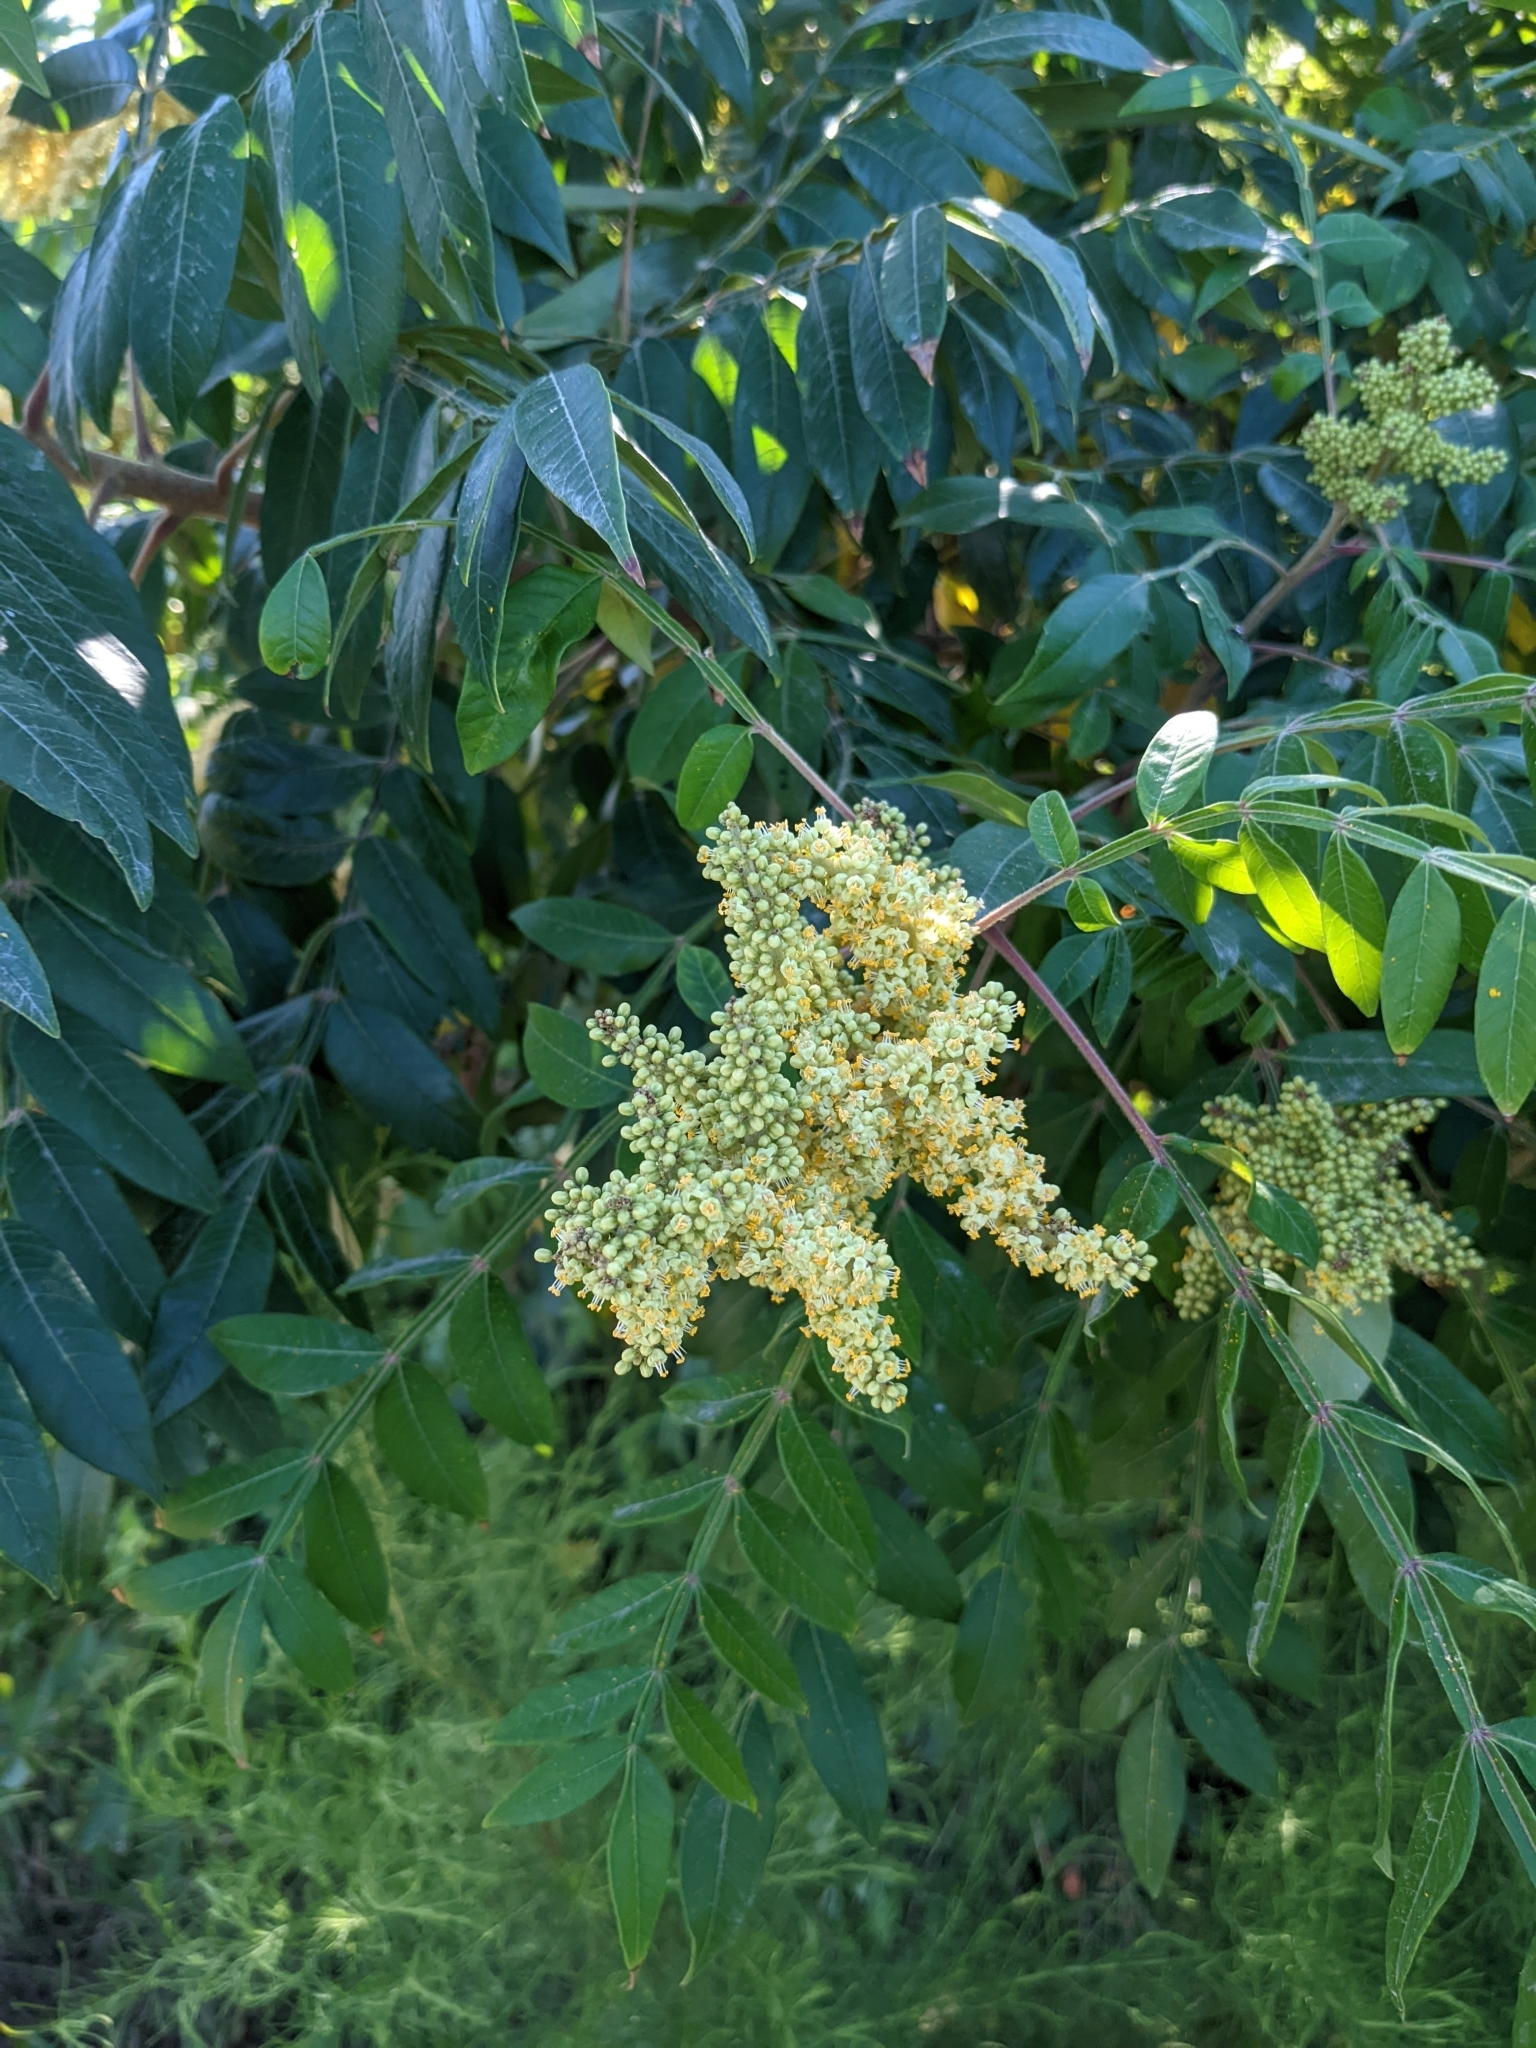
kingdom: Plantae
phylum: Tracheophyta
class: Magnoliopsida
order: Sapindales
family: Anacardiaceae
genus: Rhus
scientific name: Rhus copallina
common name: Shining sumac
